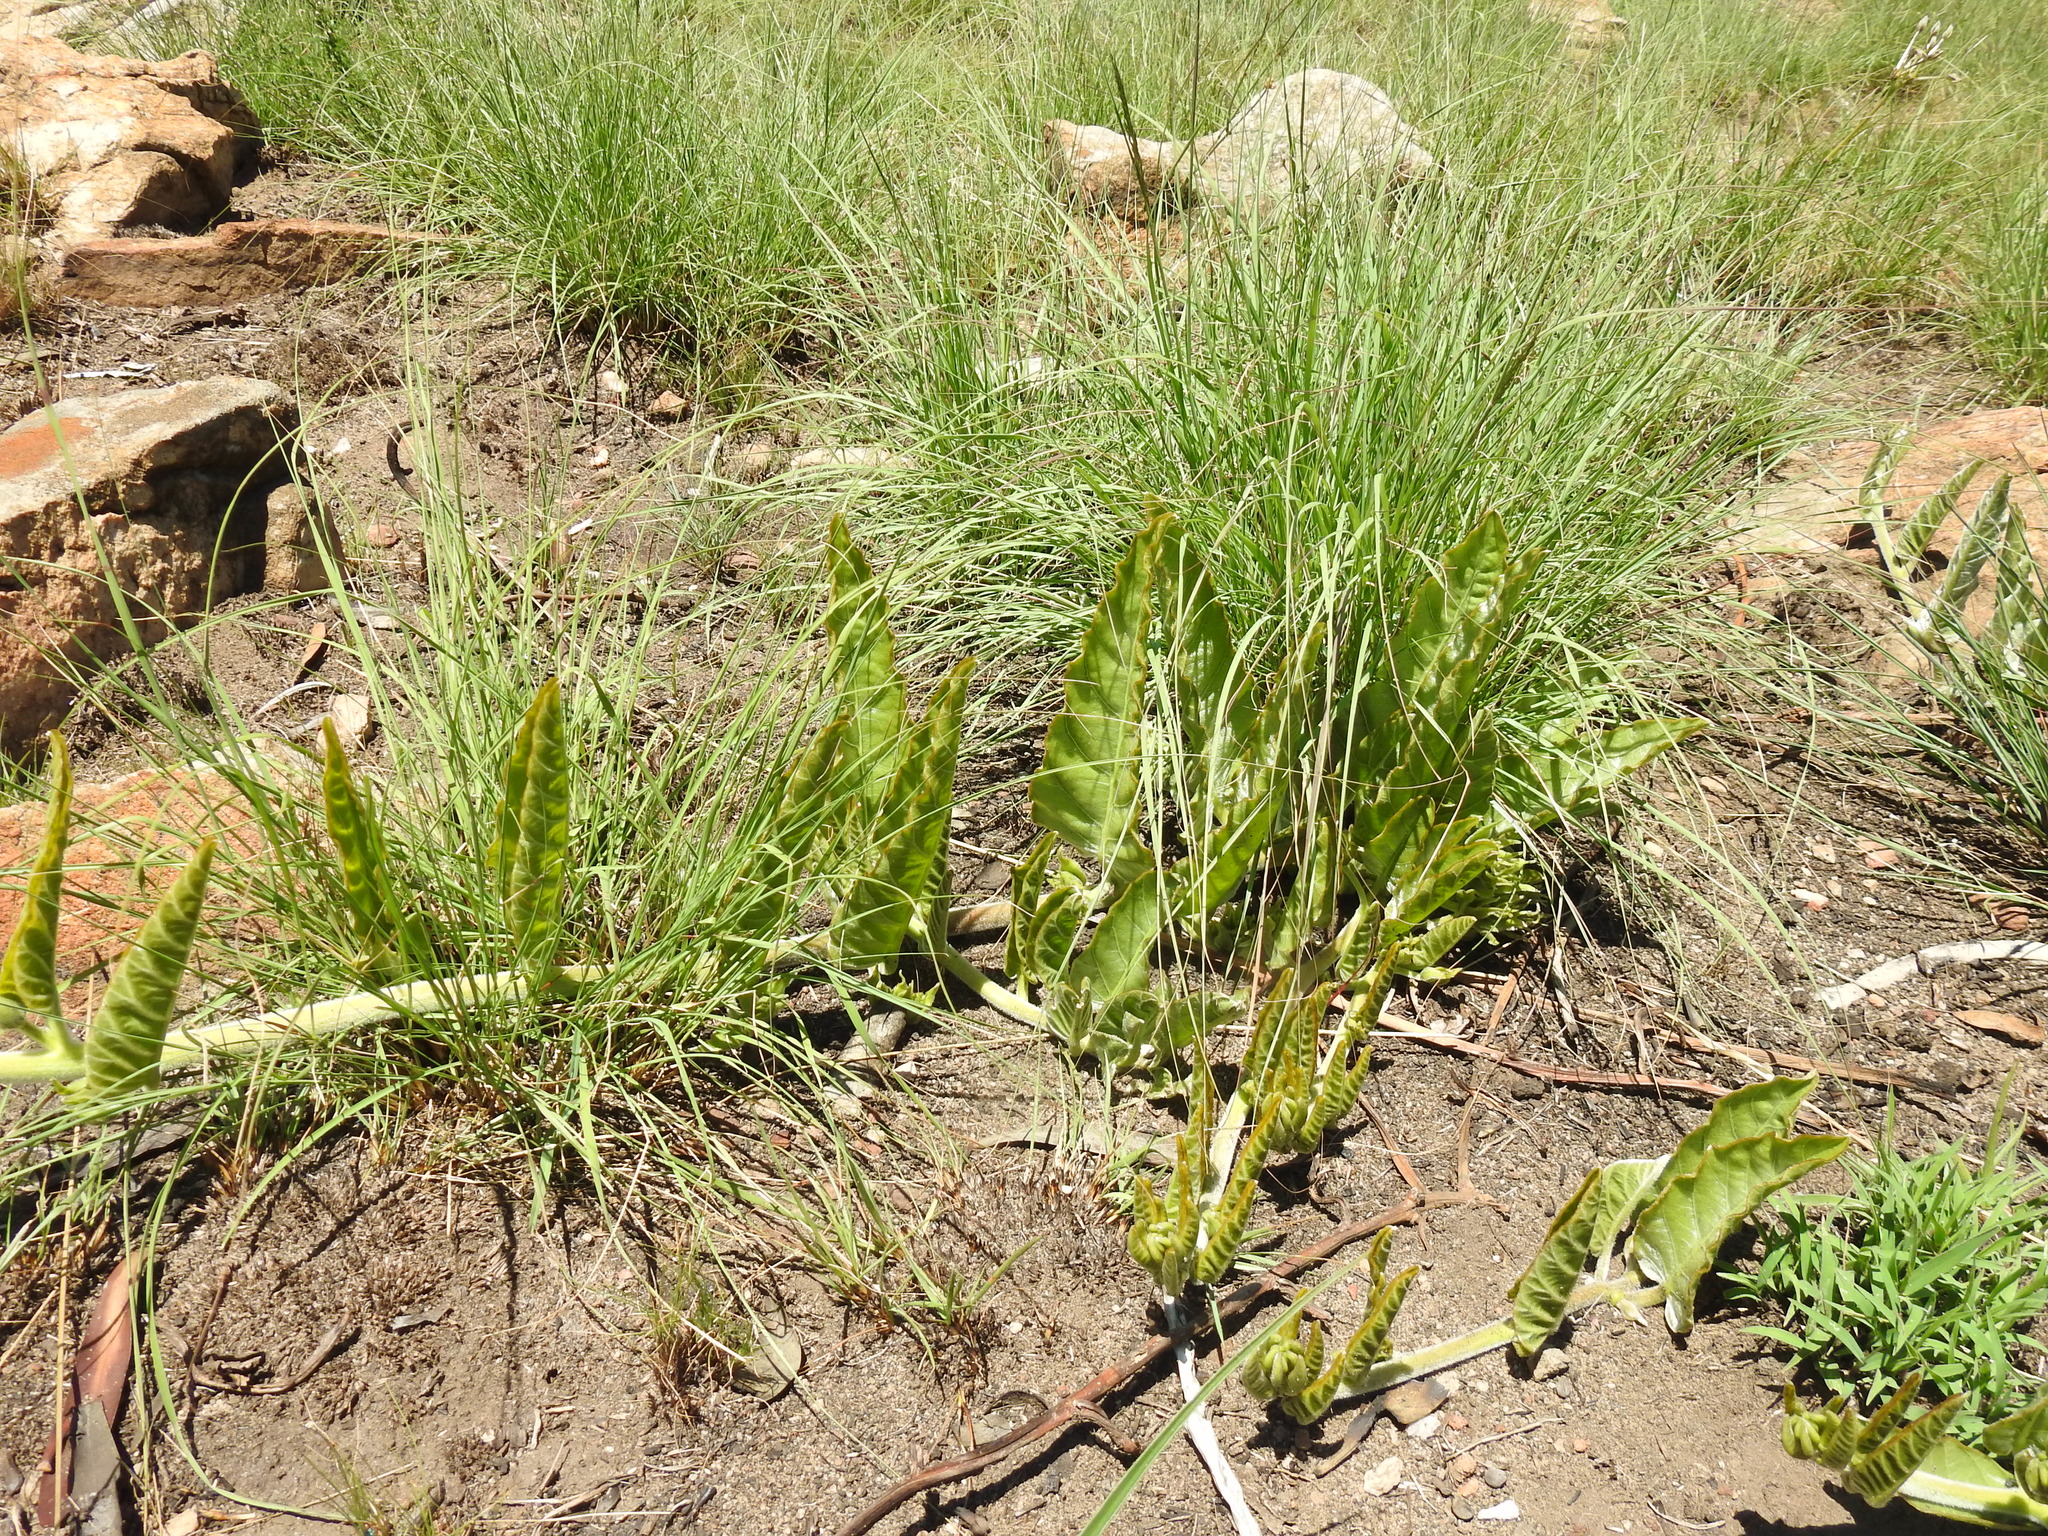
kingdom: Plantae
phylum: Tracheophyta
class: Magnoliopsida
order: Solanales
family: Convolvulaceae
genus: Ipomoea
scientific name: Ipomoea ommanneyi
